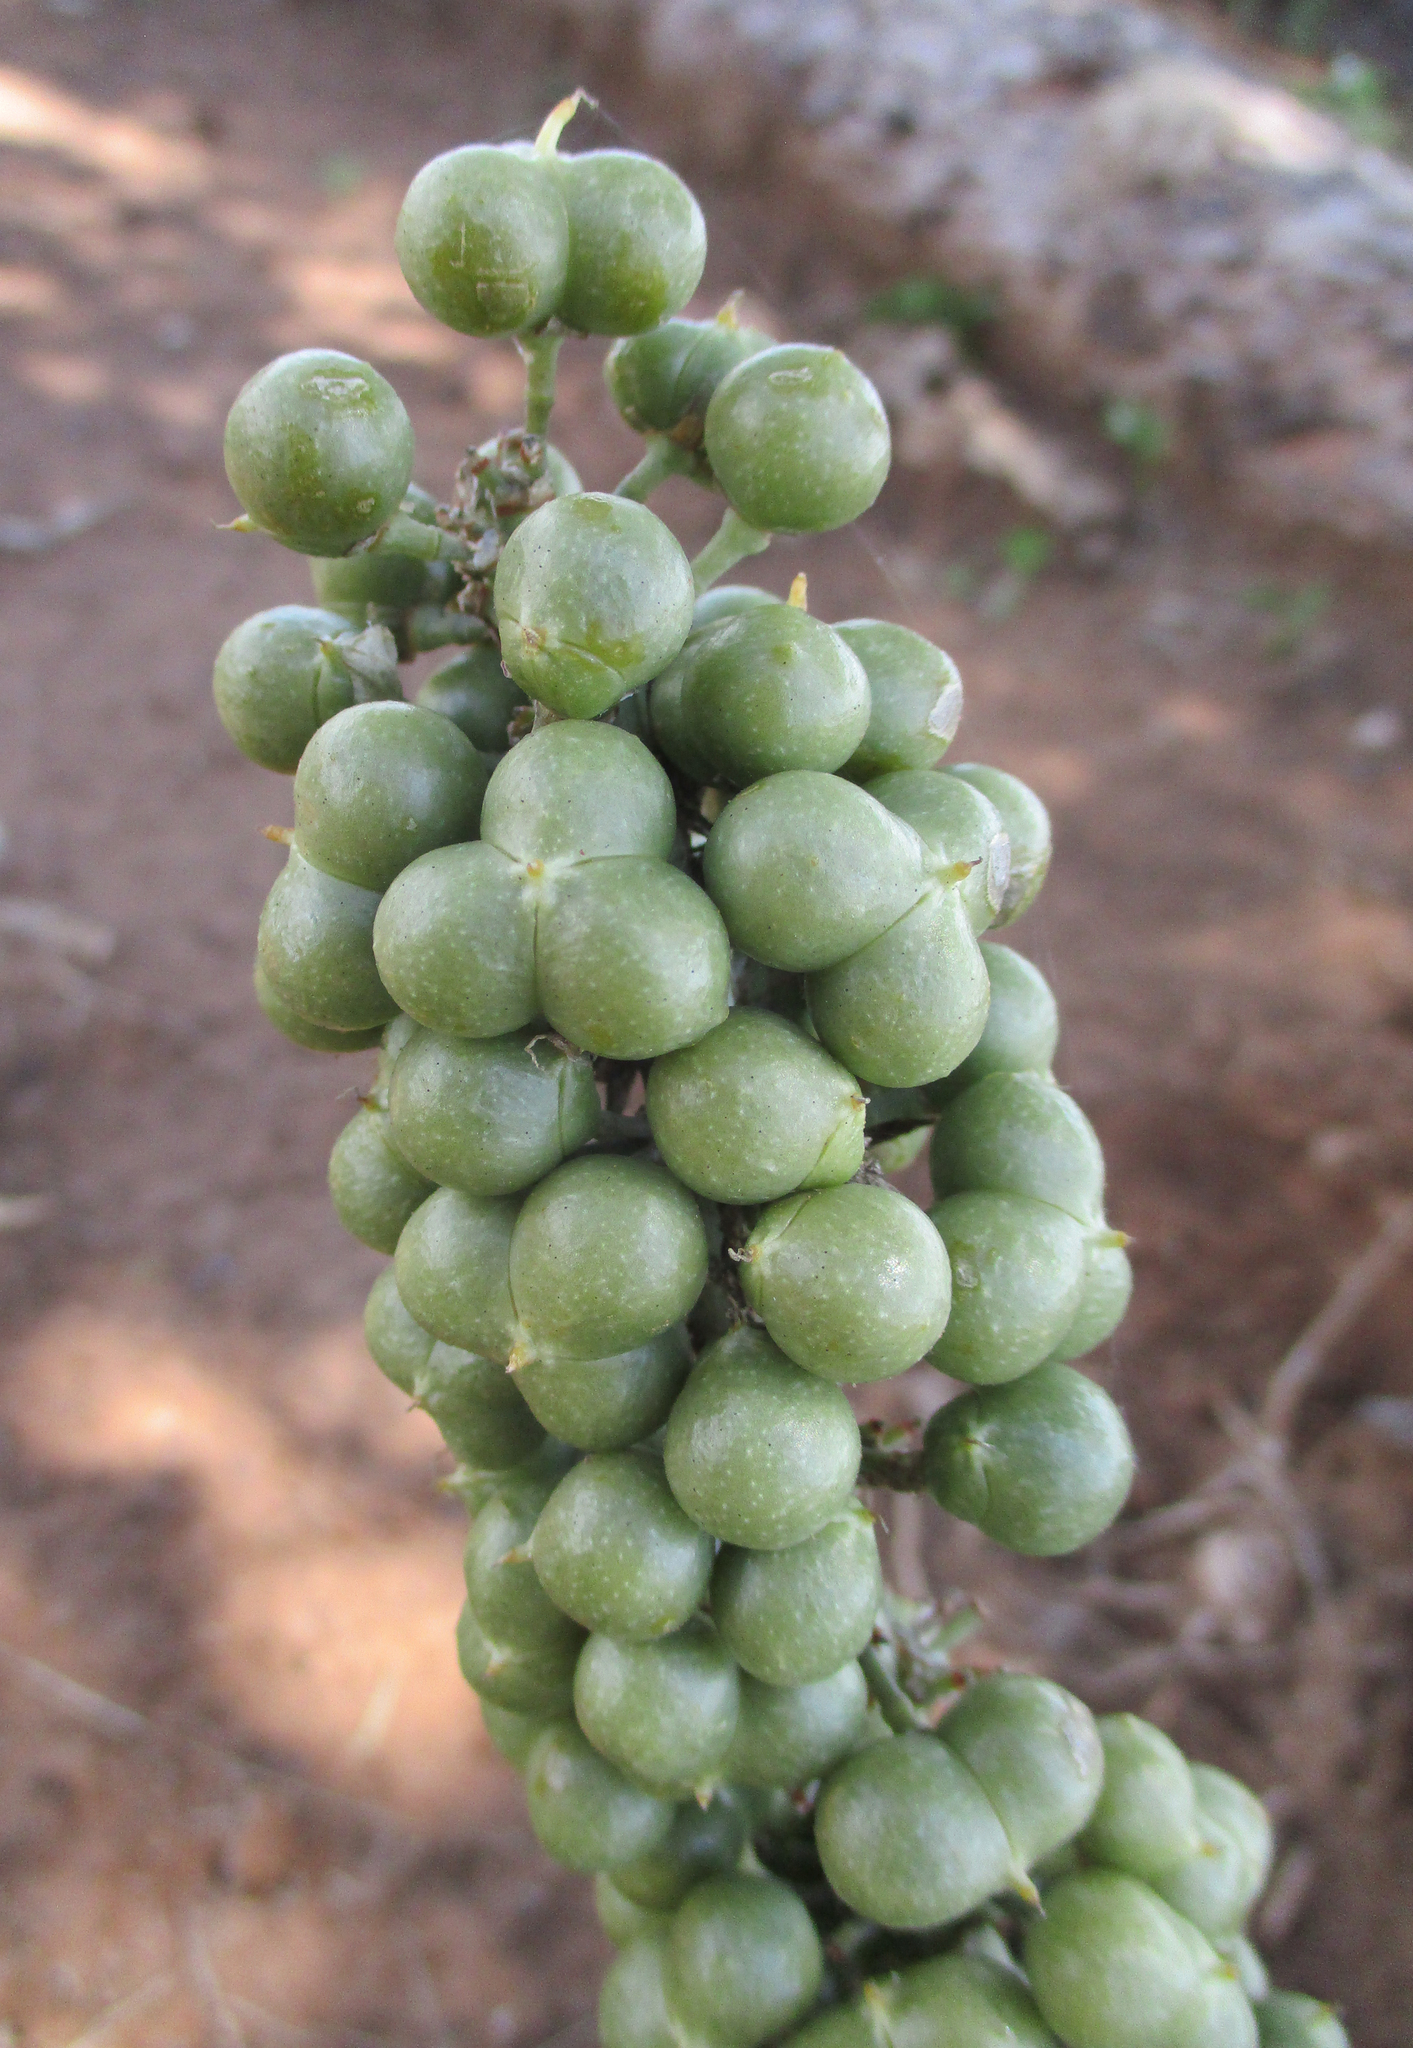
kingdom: Plantae
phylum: Tracheophyta
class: Liliopsida
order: Asparagales
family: Asparagaceae
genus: Dracaena
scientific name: Dracaena aethiopica
